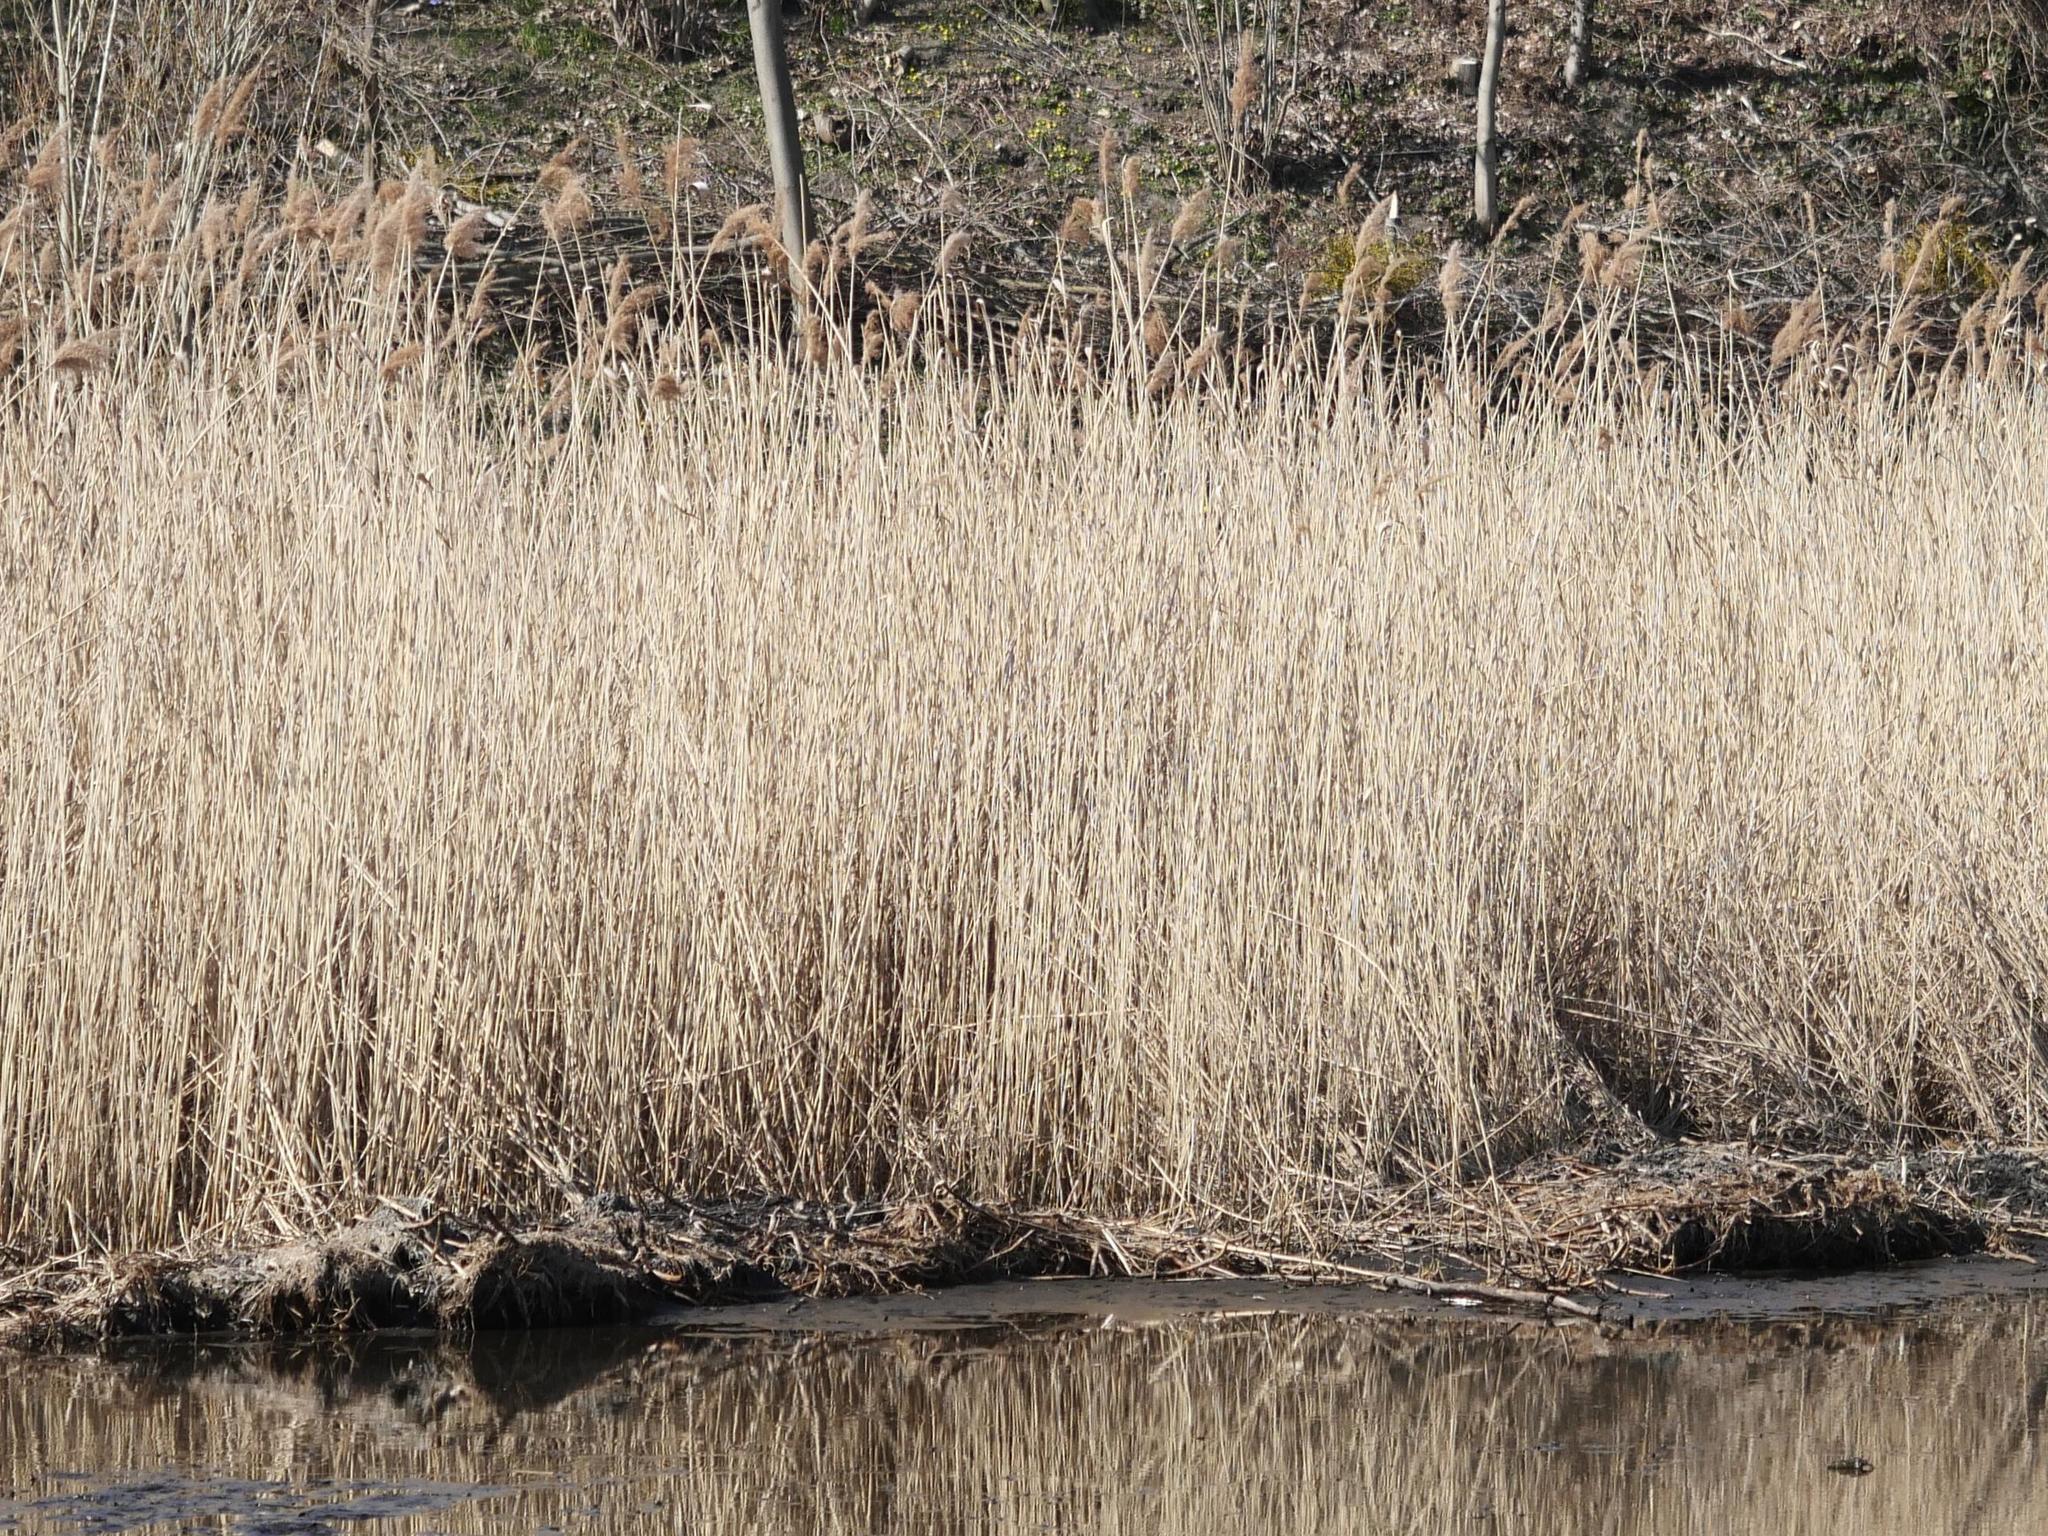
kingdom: Plantae
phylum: Tracheophyta
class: Liliopsida
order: Poales
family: Poaceae
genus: Phragmites
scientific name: Phragmites australis
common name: Common reed
